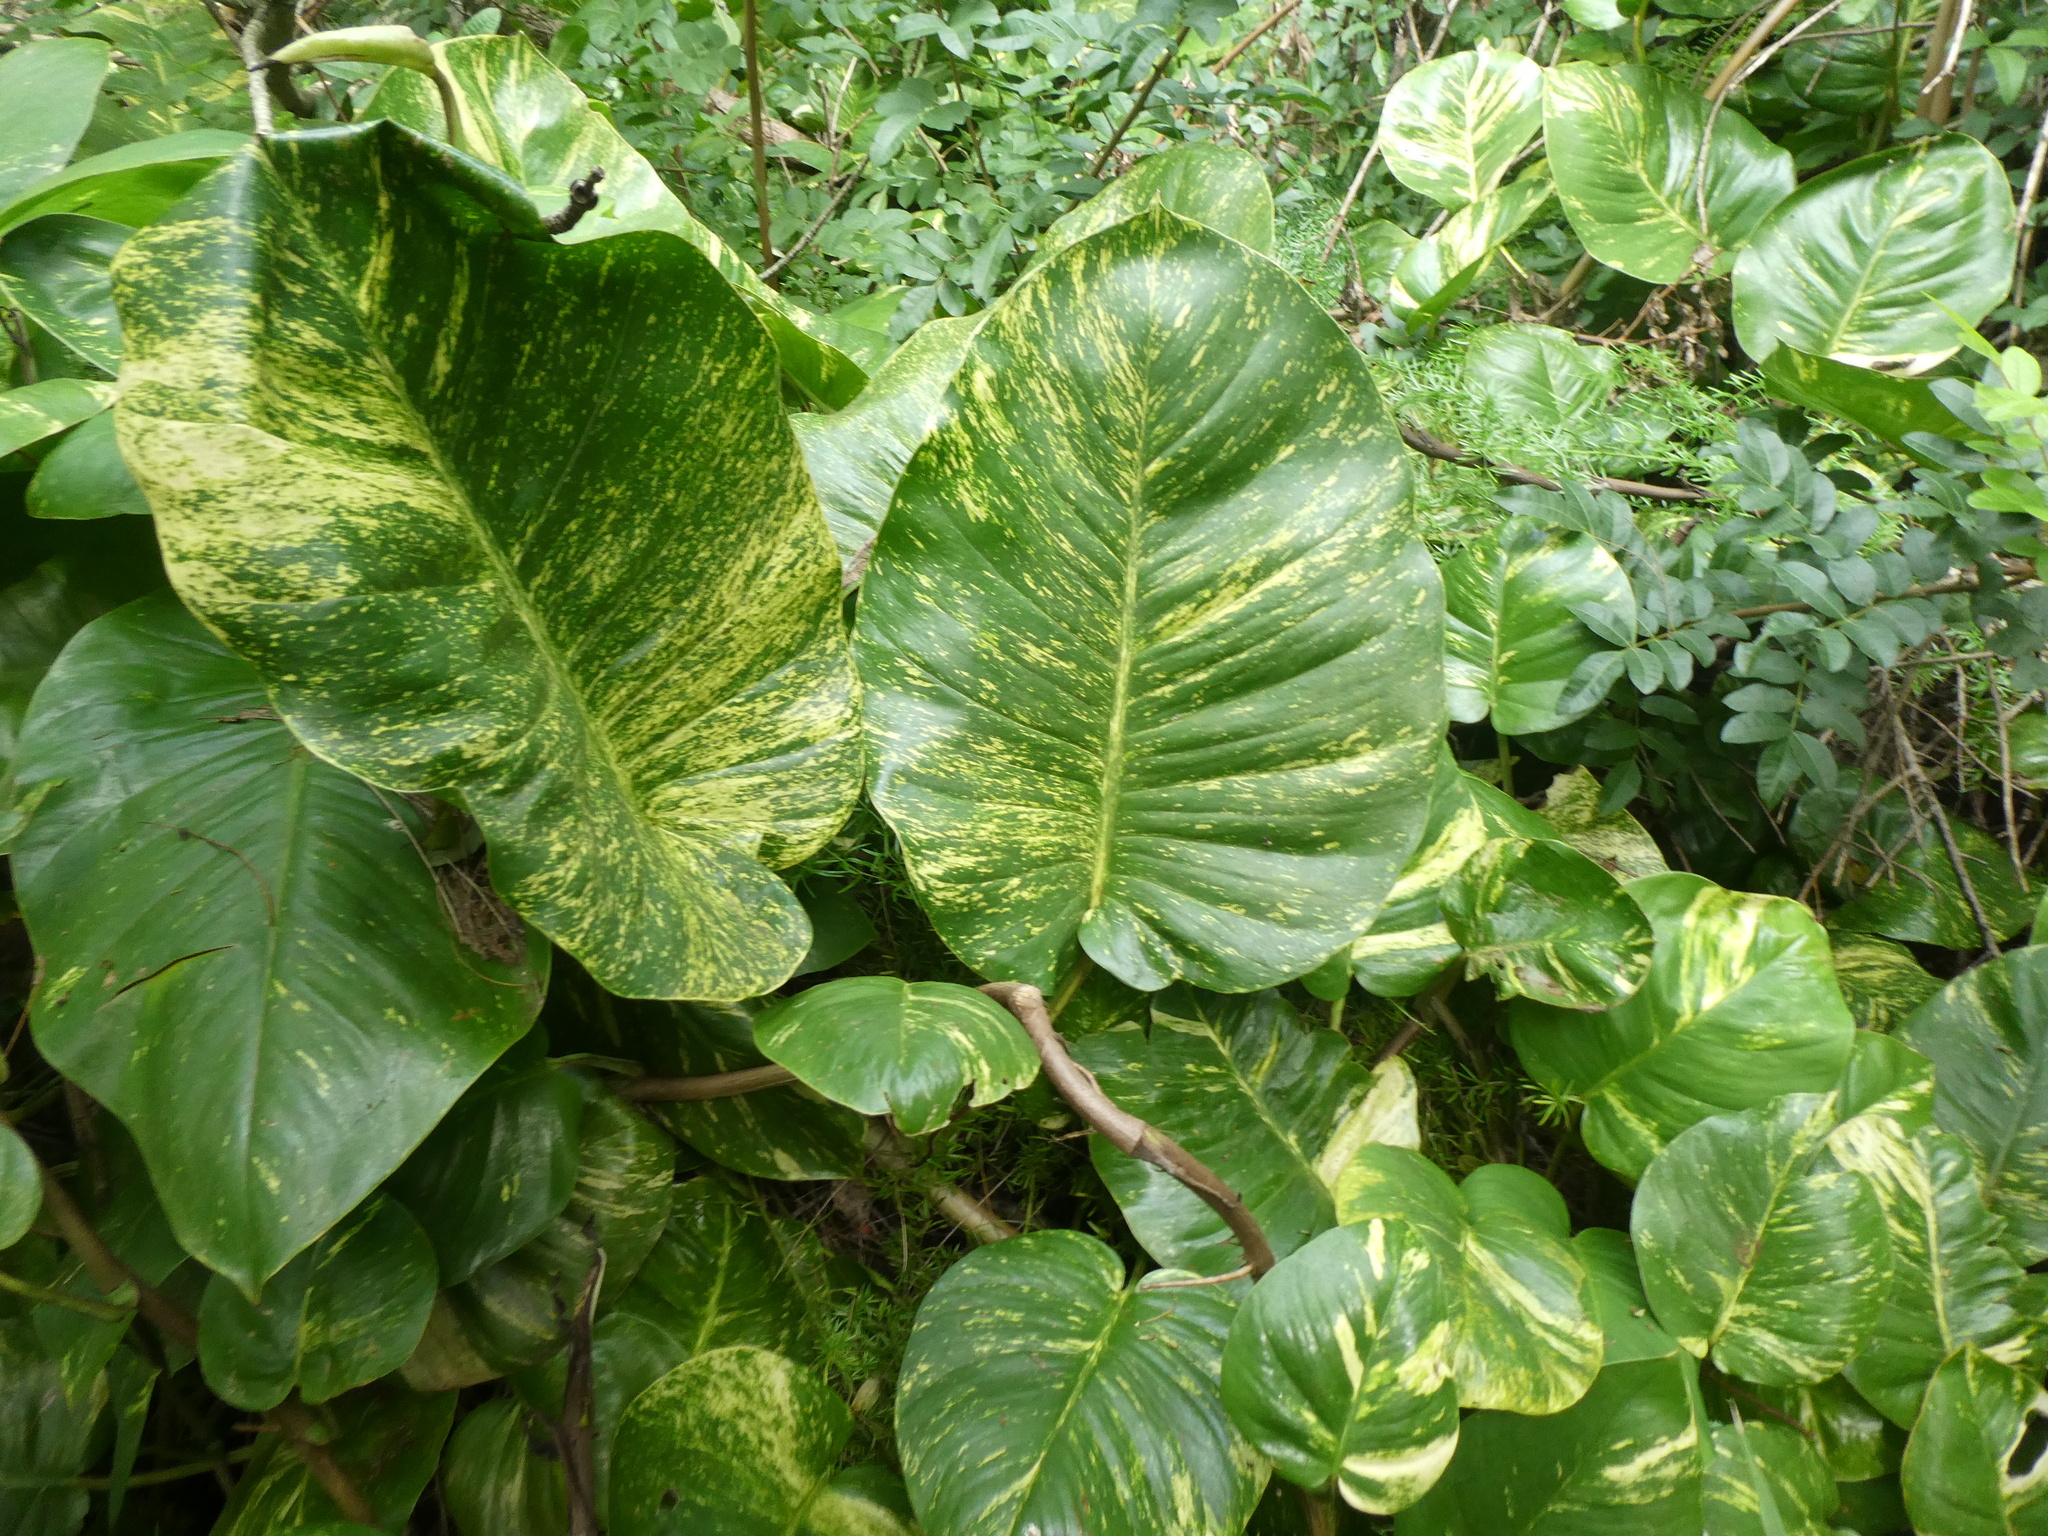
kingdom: Plantae
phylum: Tracheophyta
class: Liliopsida
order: Alismatales
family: Araceae
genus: Epipremnum
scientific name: Epipremnum aureum
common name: Golden hunter's-robe
